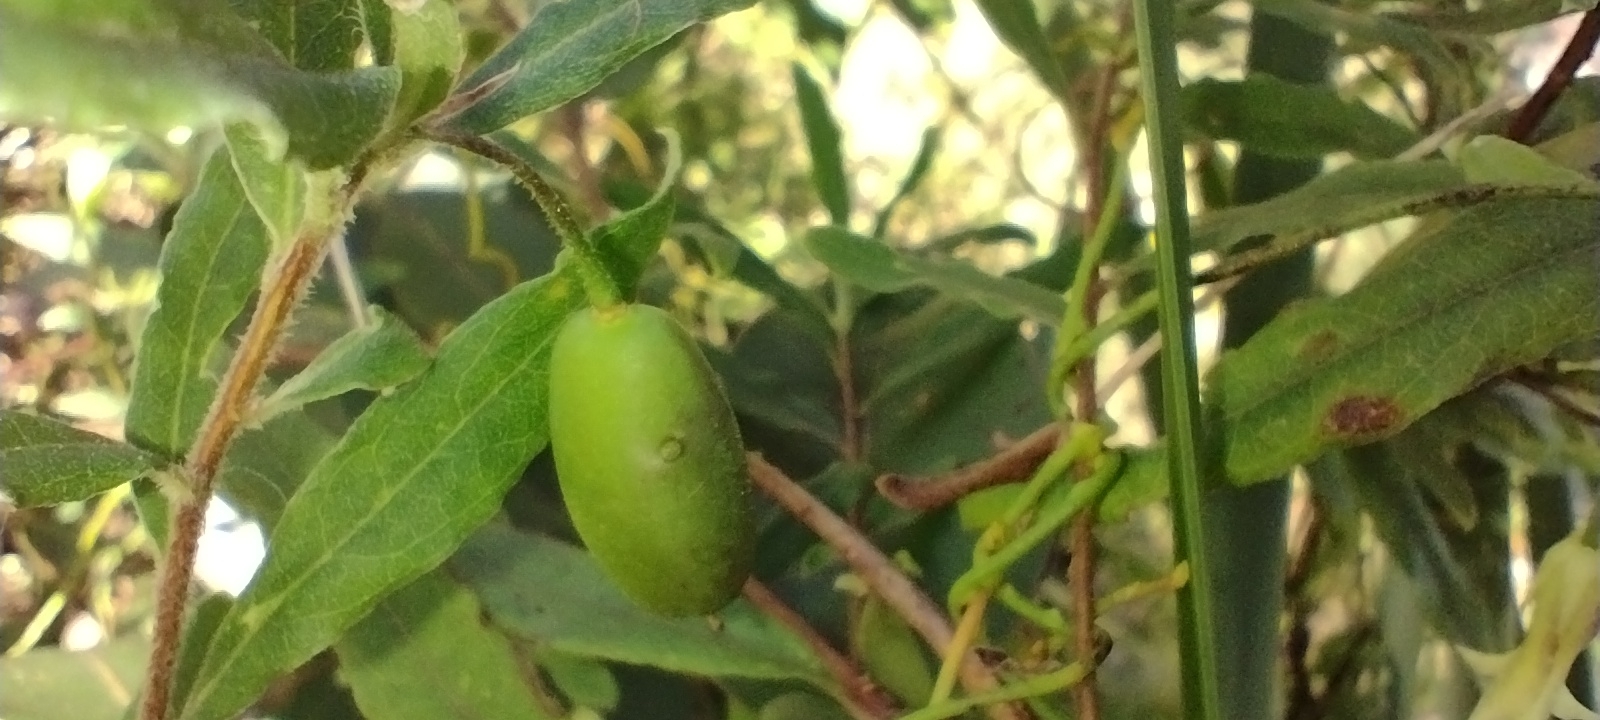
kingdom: Plantae
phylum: Tracheophyta
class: Magnoliopsida
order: Apiales
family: Pittosporaceae
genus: Billardiera
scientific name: Billardiera mutabilis
